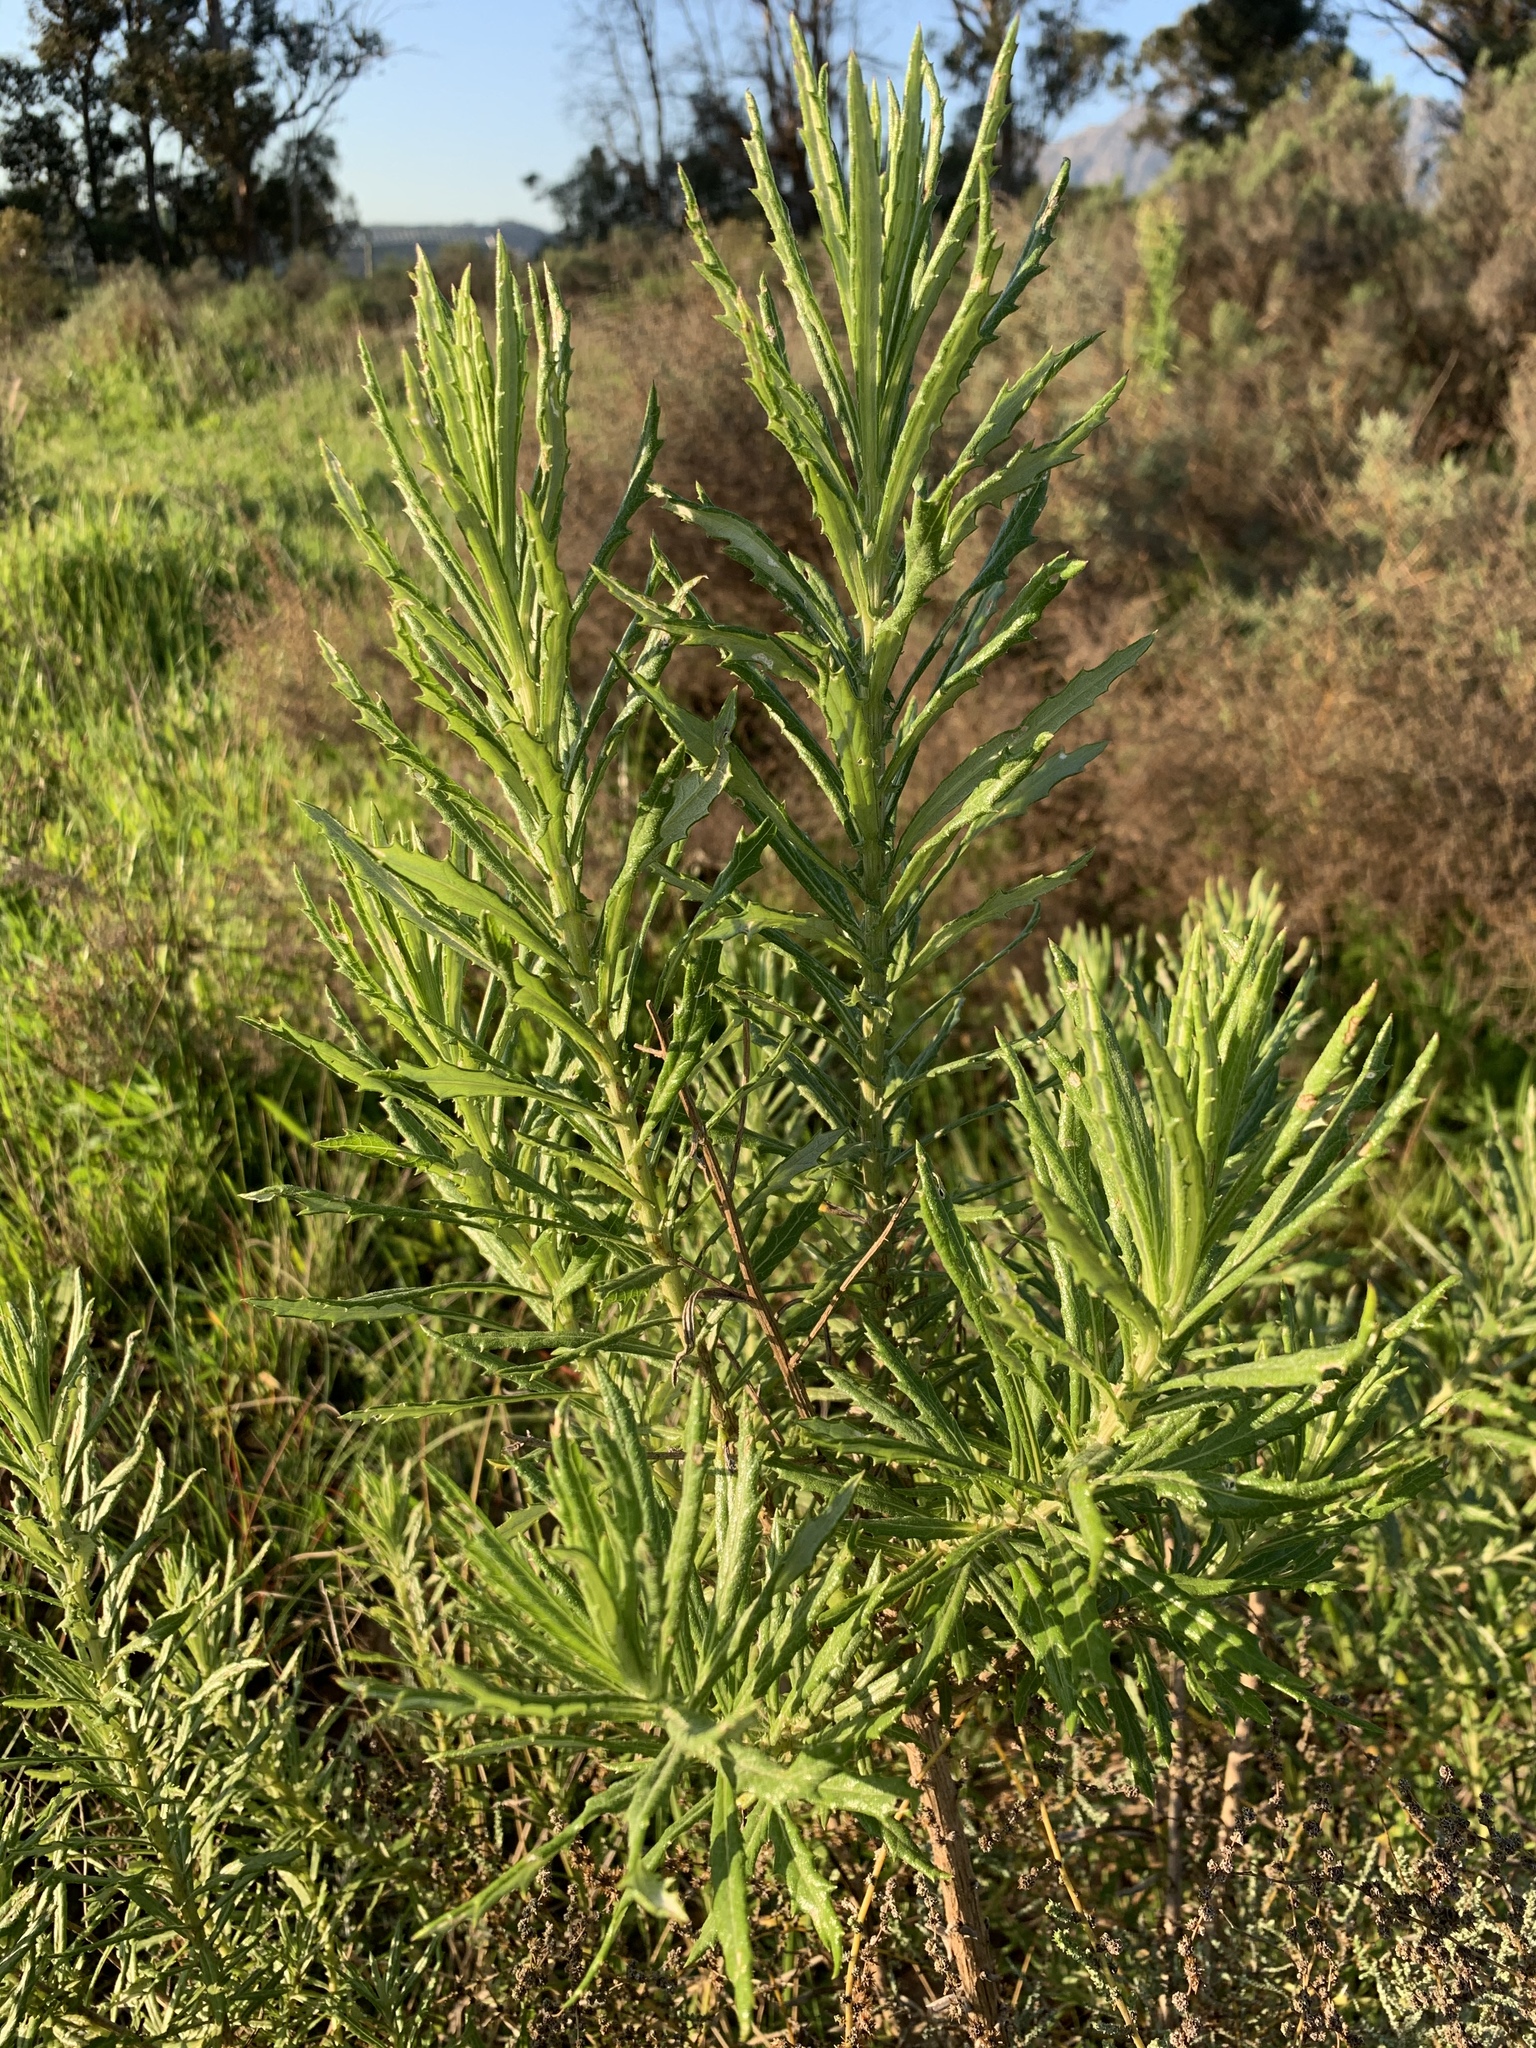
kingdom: Plantae
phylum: Tracheophyta
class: Magnoliopsida
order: Asterales
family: Asteraceae
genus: Senecio
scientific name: Senecio pterophorus
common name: Shoddy ragwort
